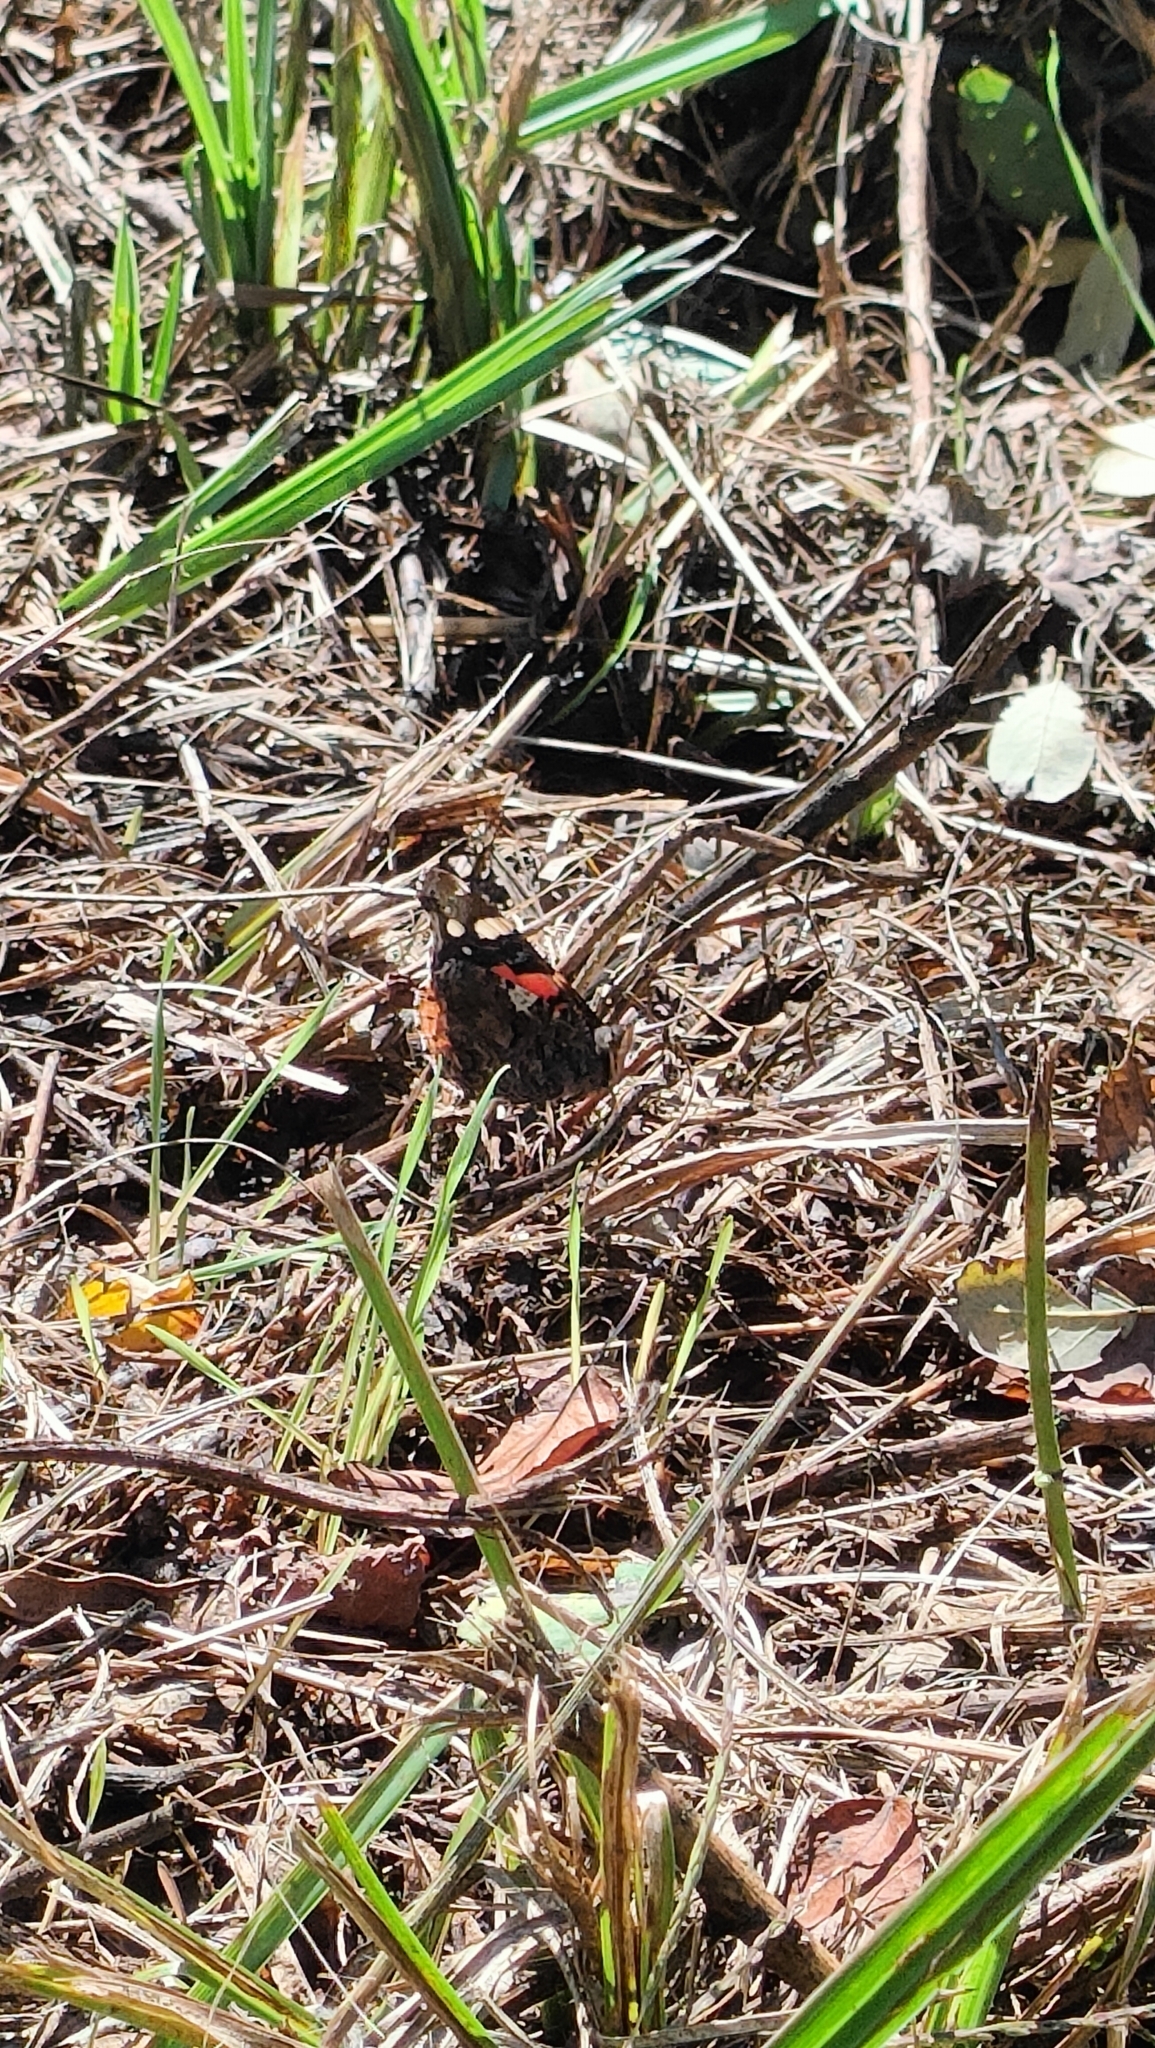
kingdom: Animalia
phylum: Arthropoda
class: Insecta
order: Lepidoptera
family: Nymphalidae
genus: Vanessa
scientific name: Vanessa atalanta
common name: Red admiral
